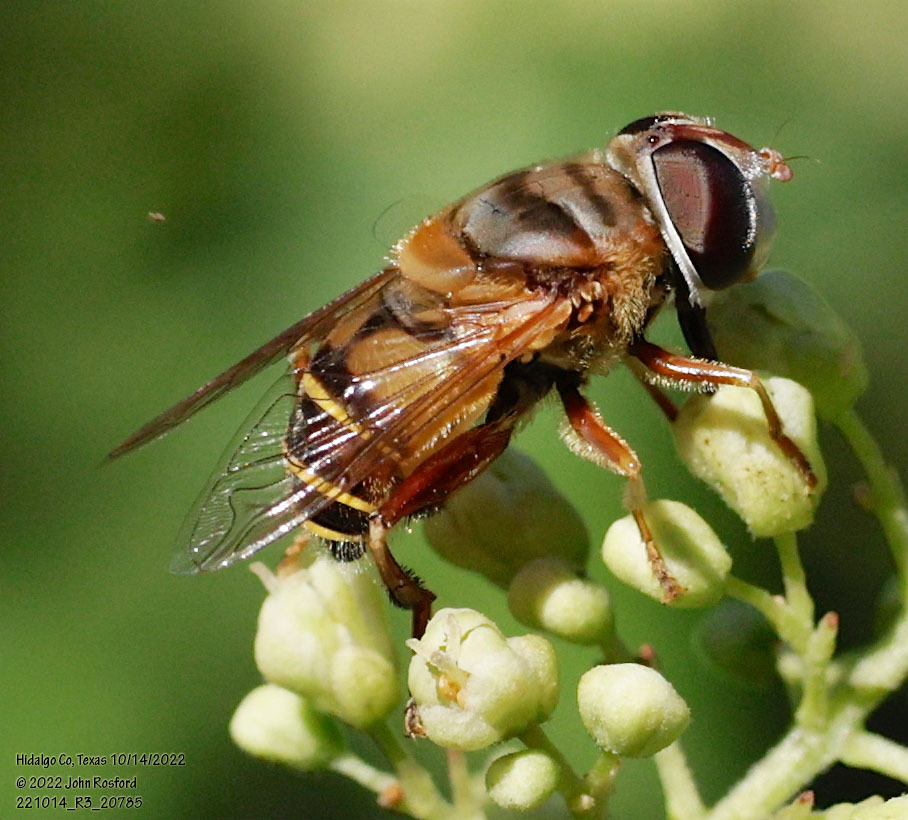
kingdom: Animalia
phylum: Arthropoda
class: Insecta
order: Diptera
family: Syrphidae
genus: Palpada
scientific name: Palpada vinetorum
